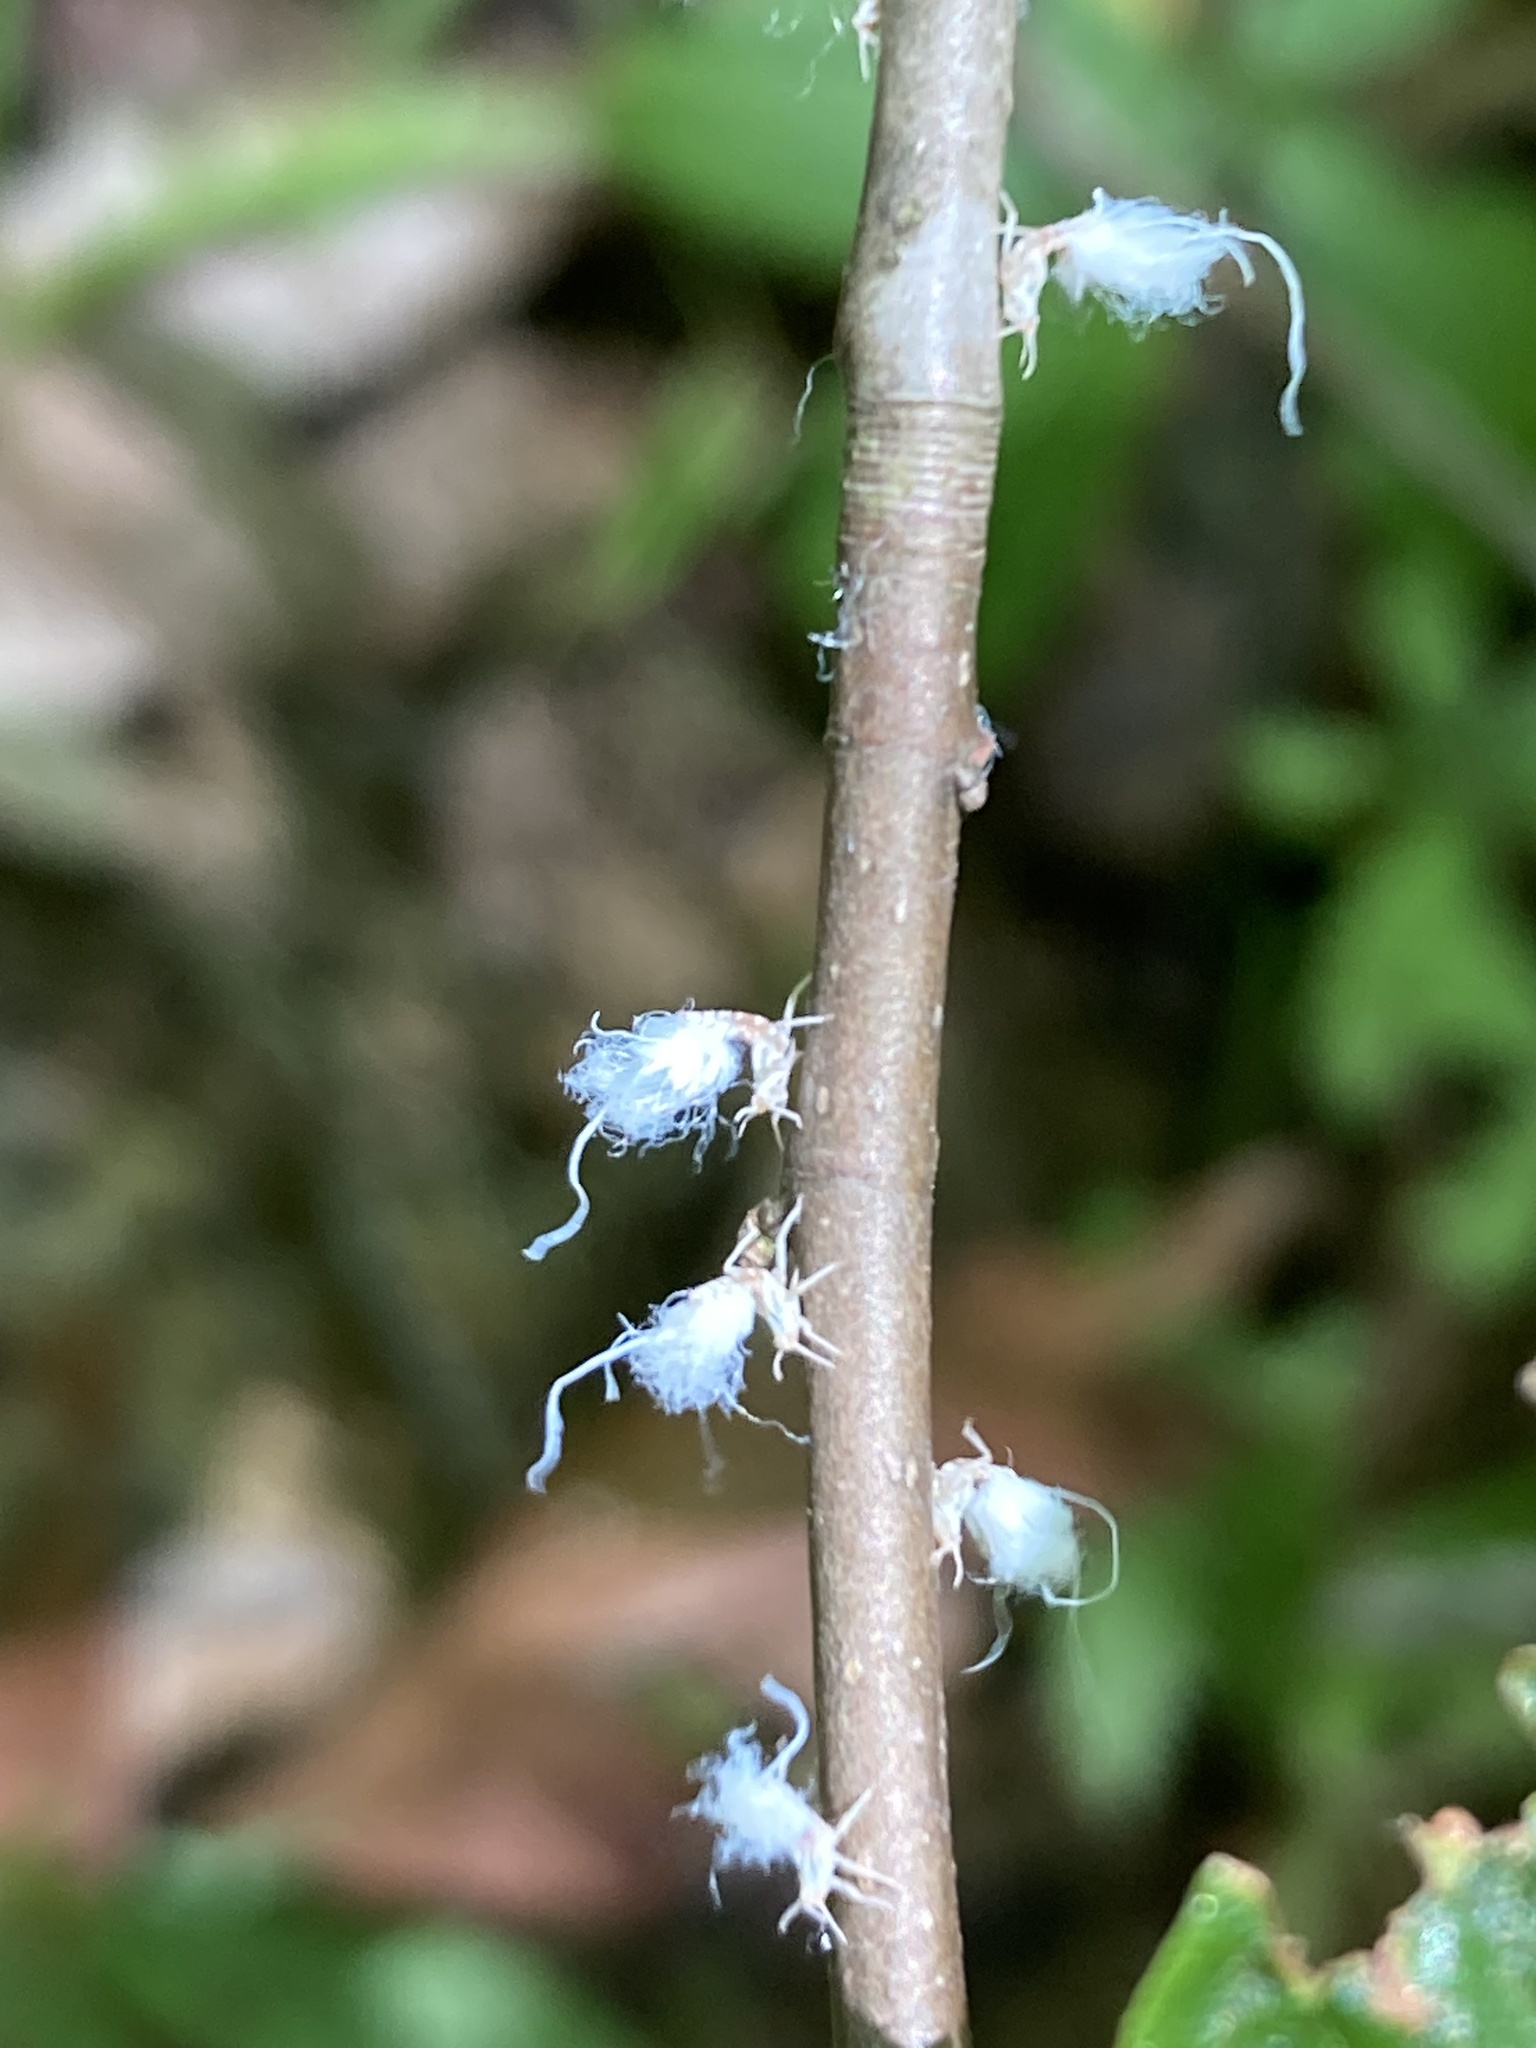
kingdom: Animalia
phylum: Arthropoda
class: Insecta
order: Hemiptera
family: Aphididae
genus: Grylloprociphilus
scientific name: Grylloprociphilus imbricator
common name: Beech blight aphid
